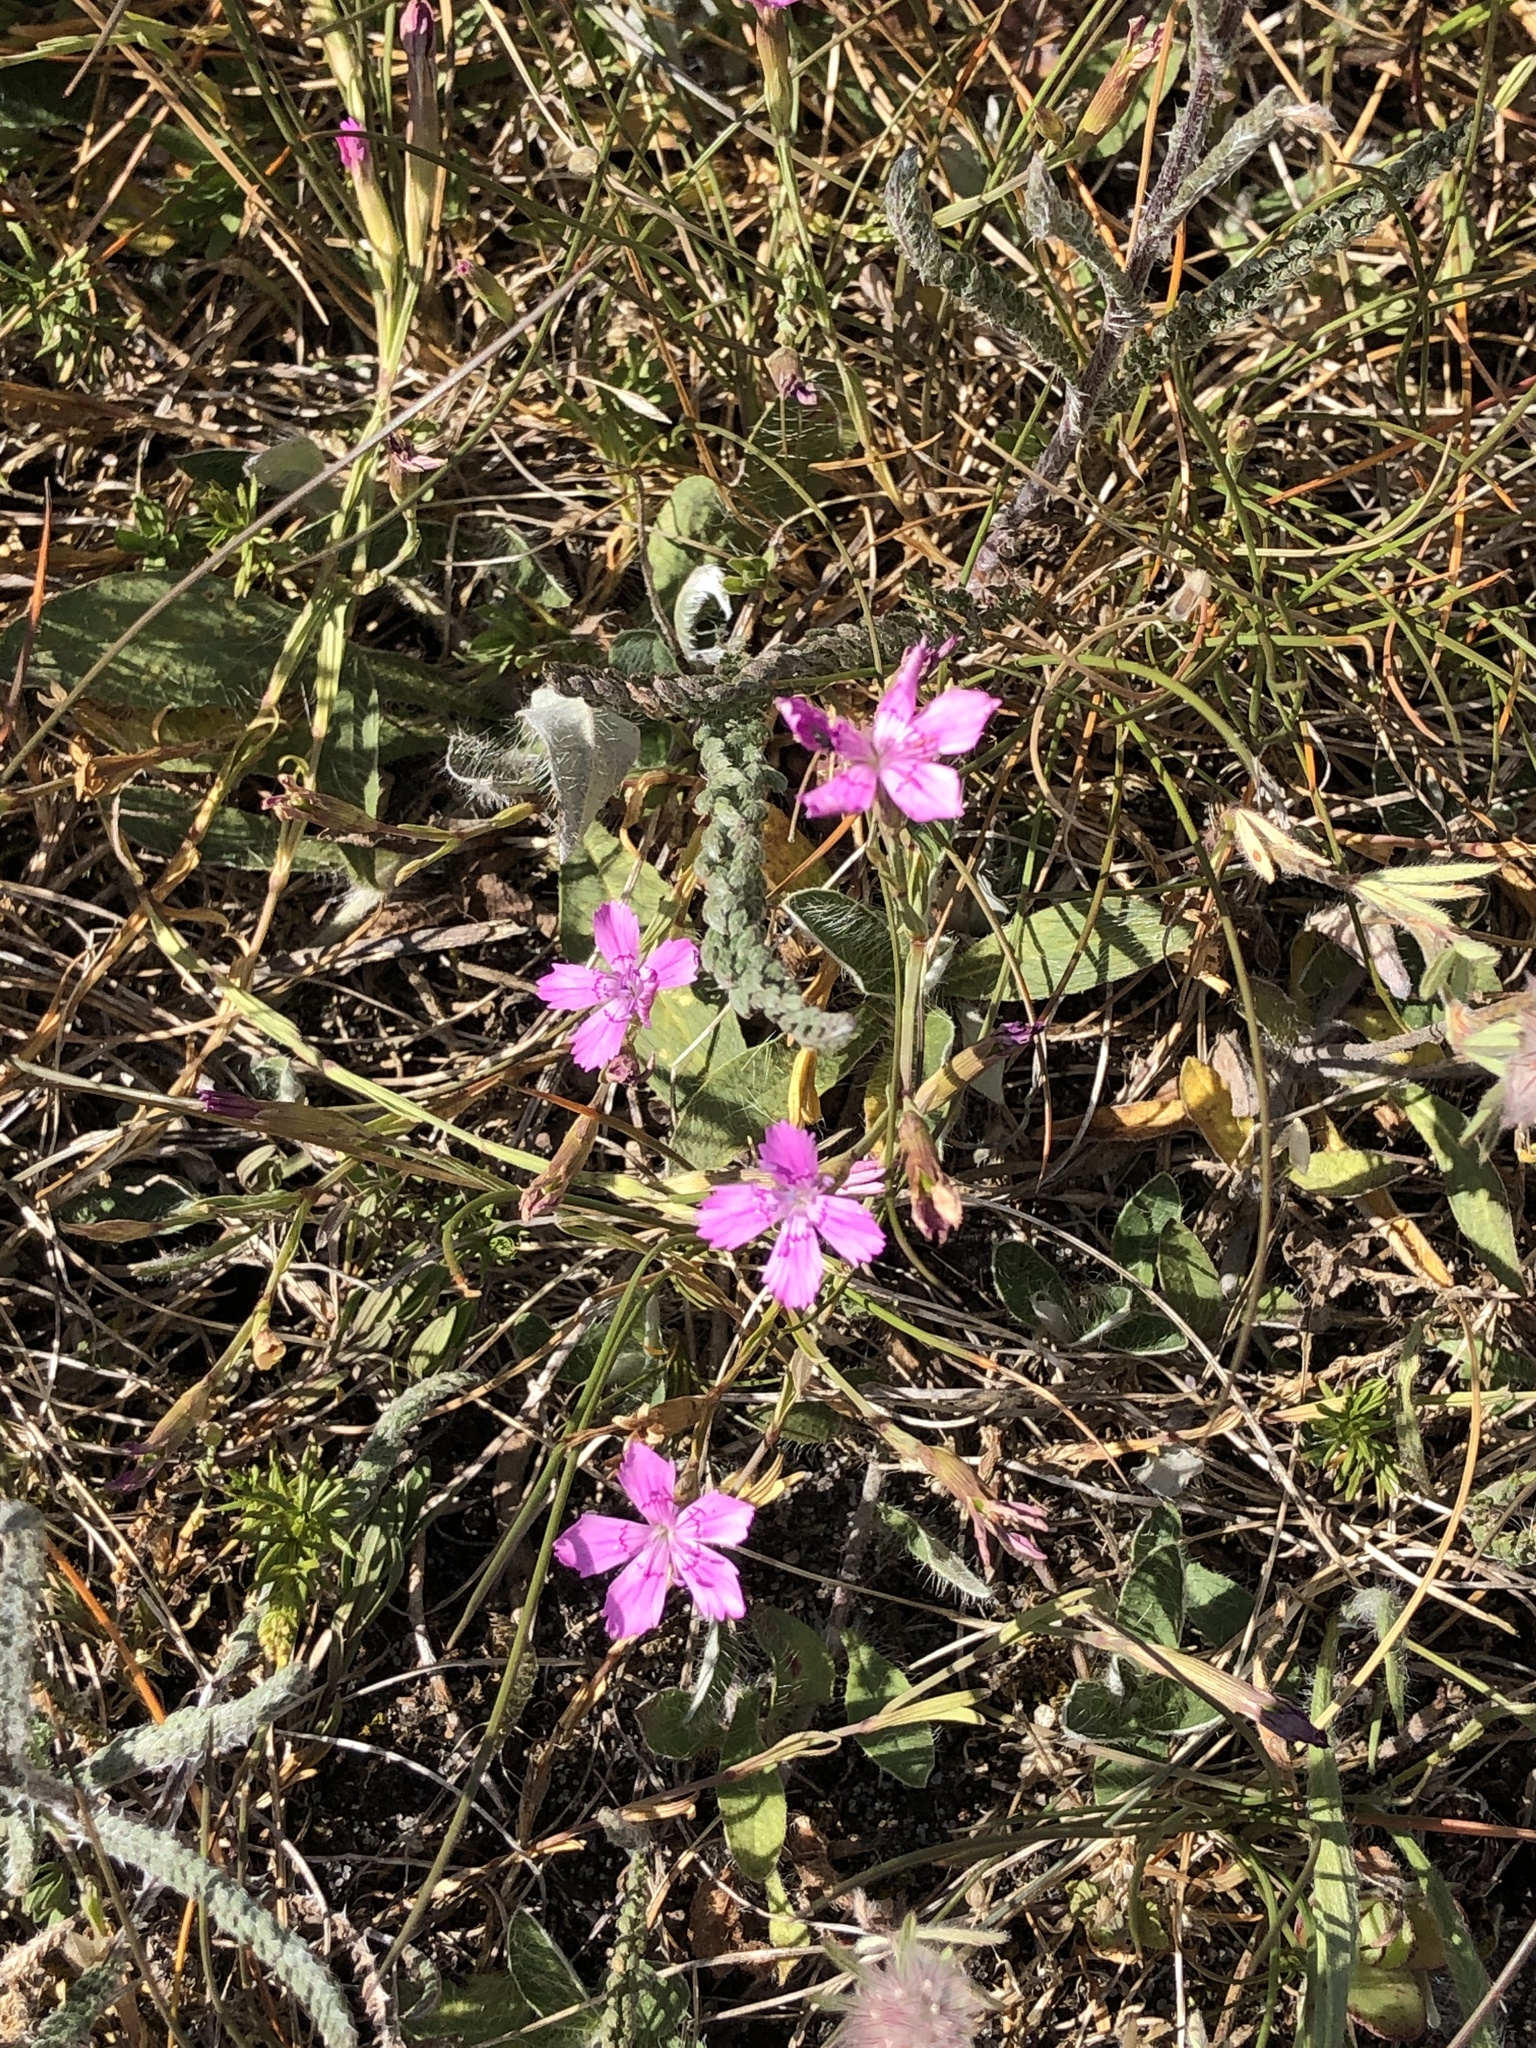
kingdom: Plantae
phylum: Tracheophyta
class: Magnoliopsida
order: Caryophyllales
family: Caryophyllaceae
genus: Dianthus
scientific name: Dianthus deltoides
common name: Maiden pink
